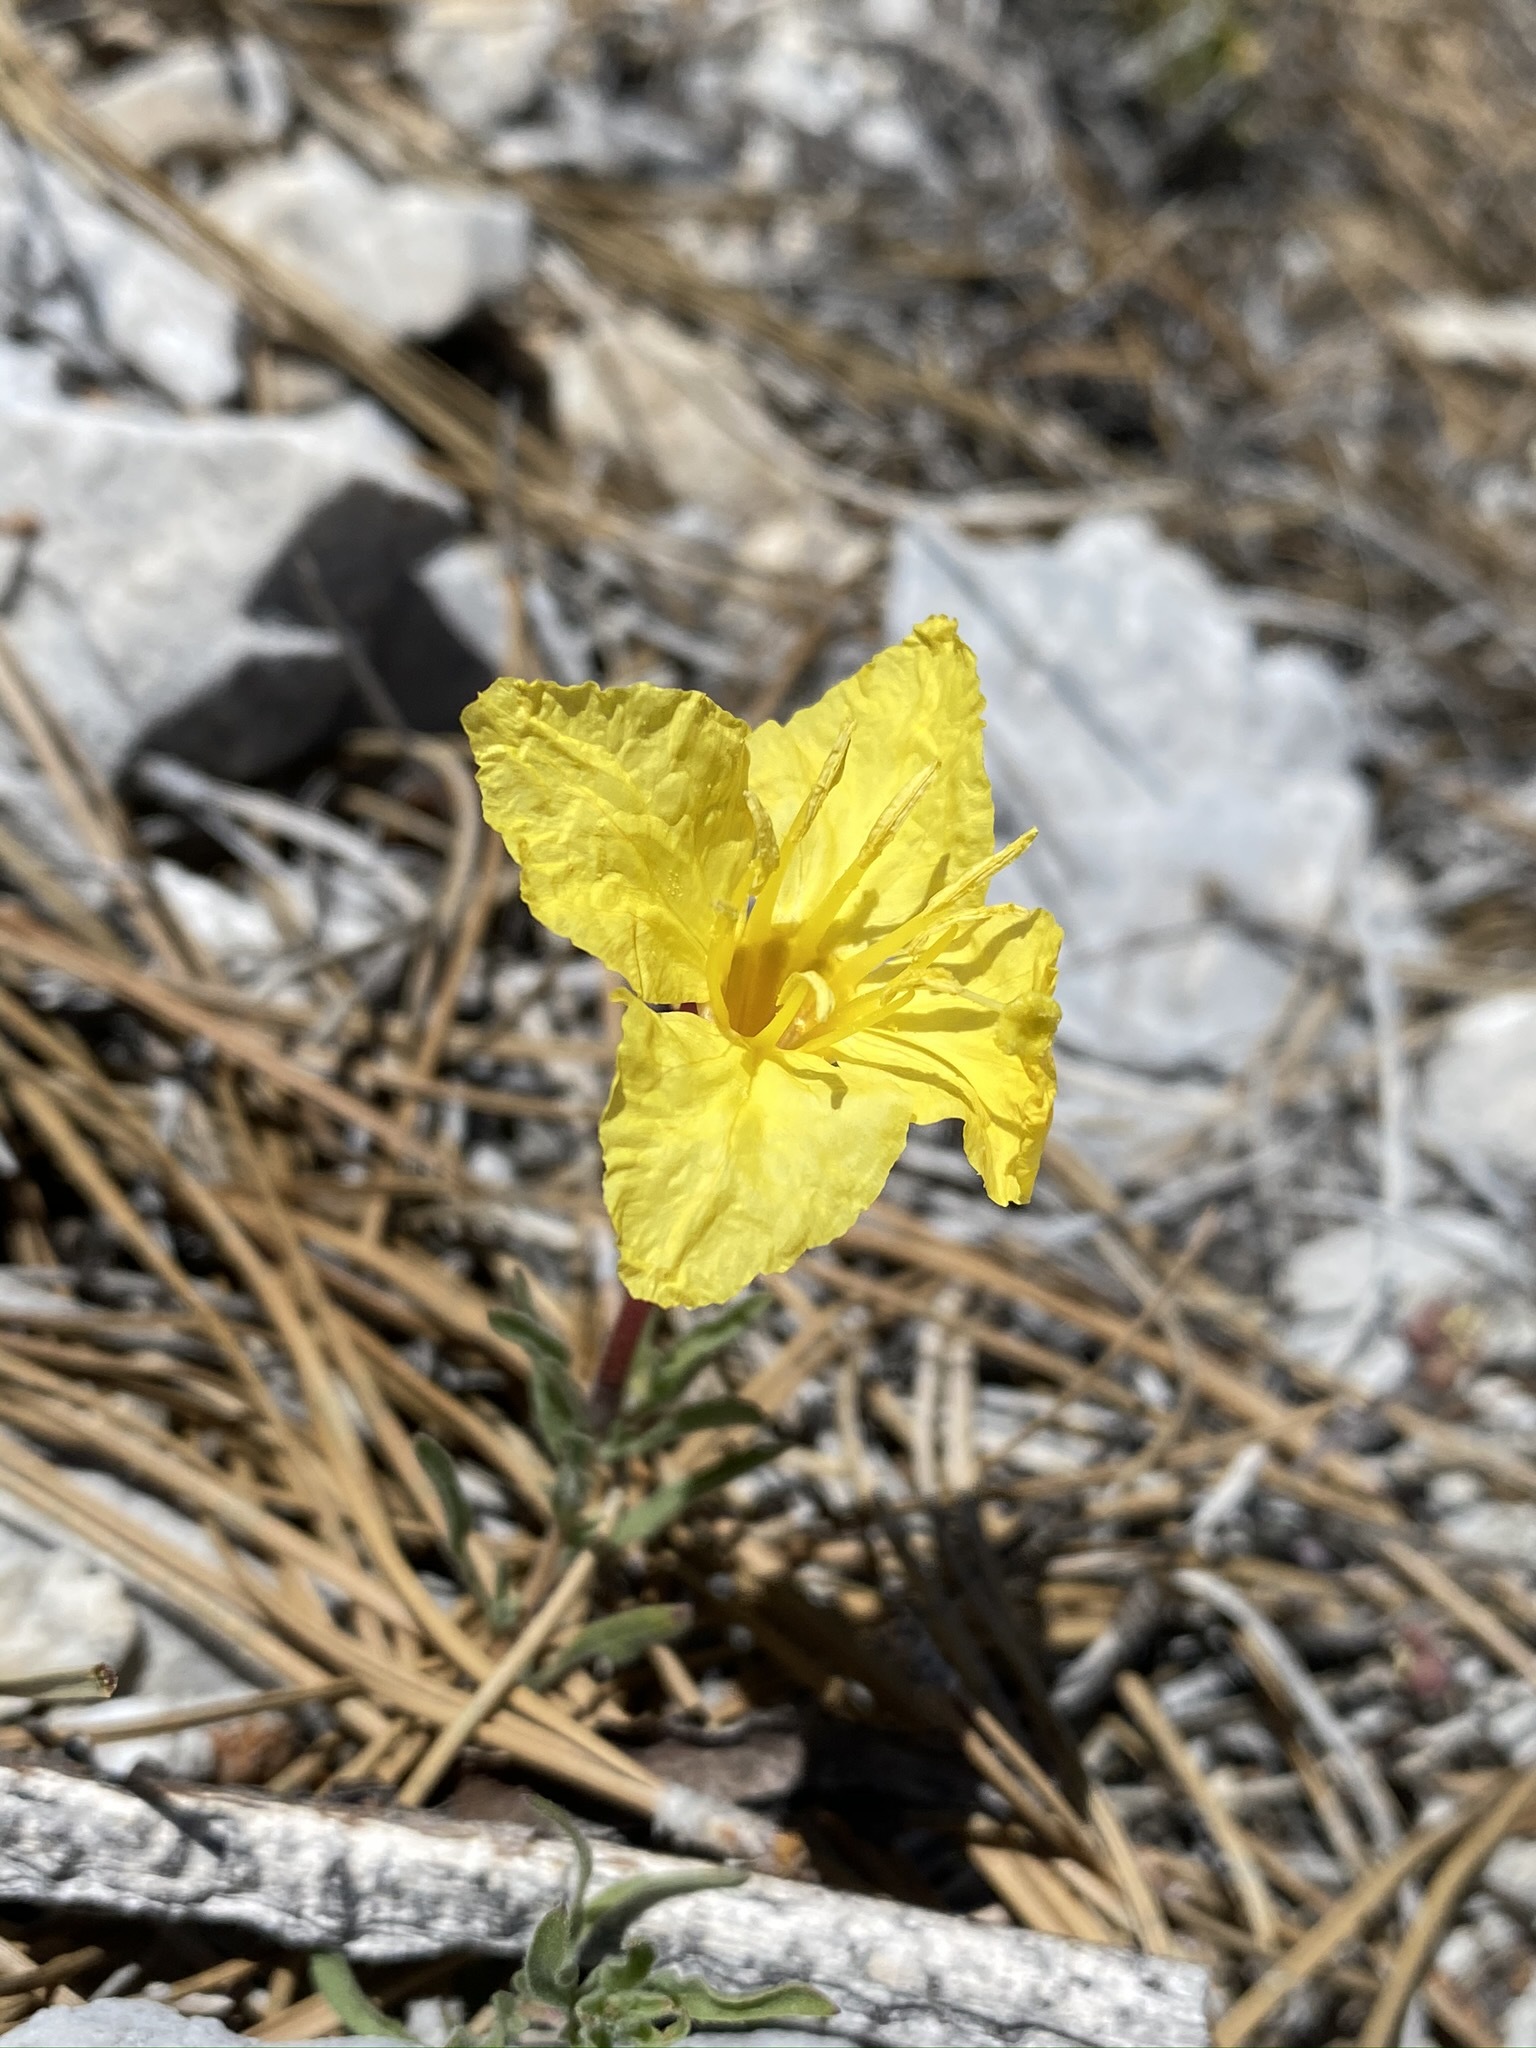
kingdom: Plantae
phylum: Tracheophyta
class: Magnoliopsida
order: Myrtales
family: Onagraceae
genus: Oenothera
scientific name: Oenothera lavandulifolia
